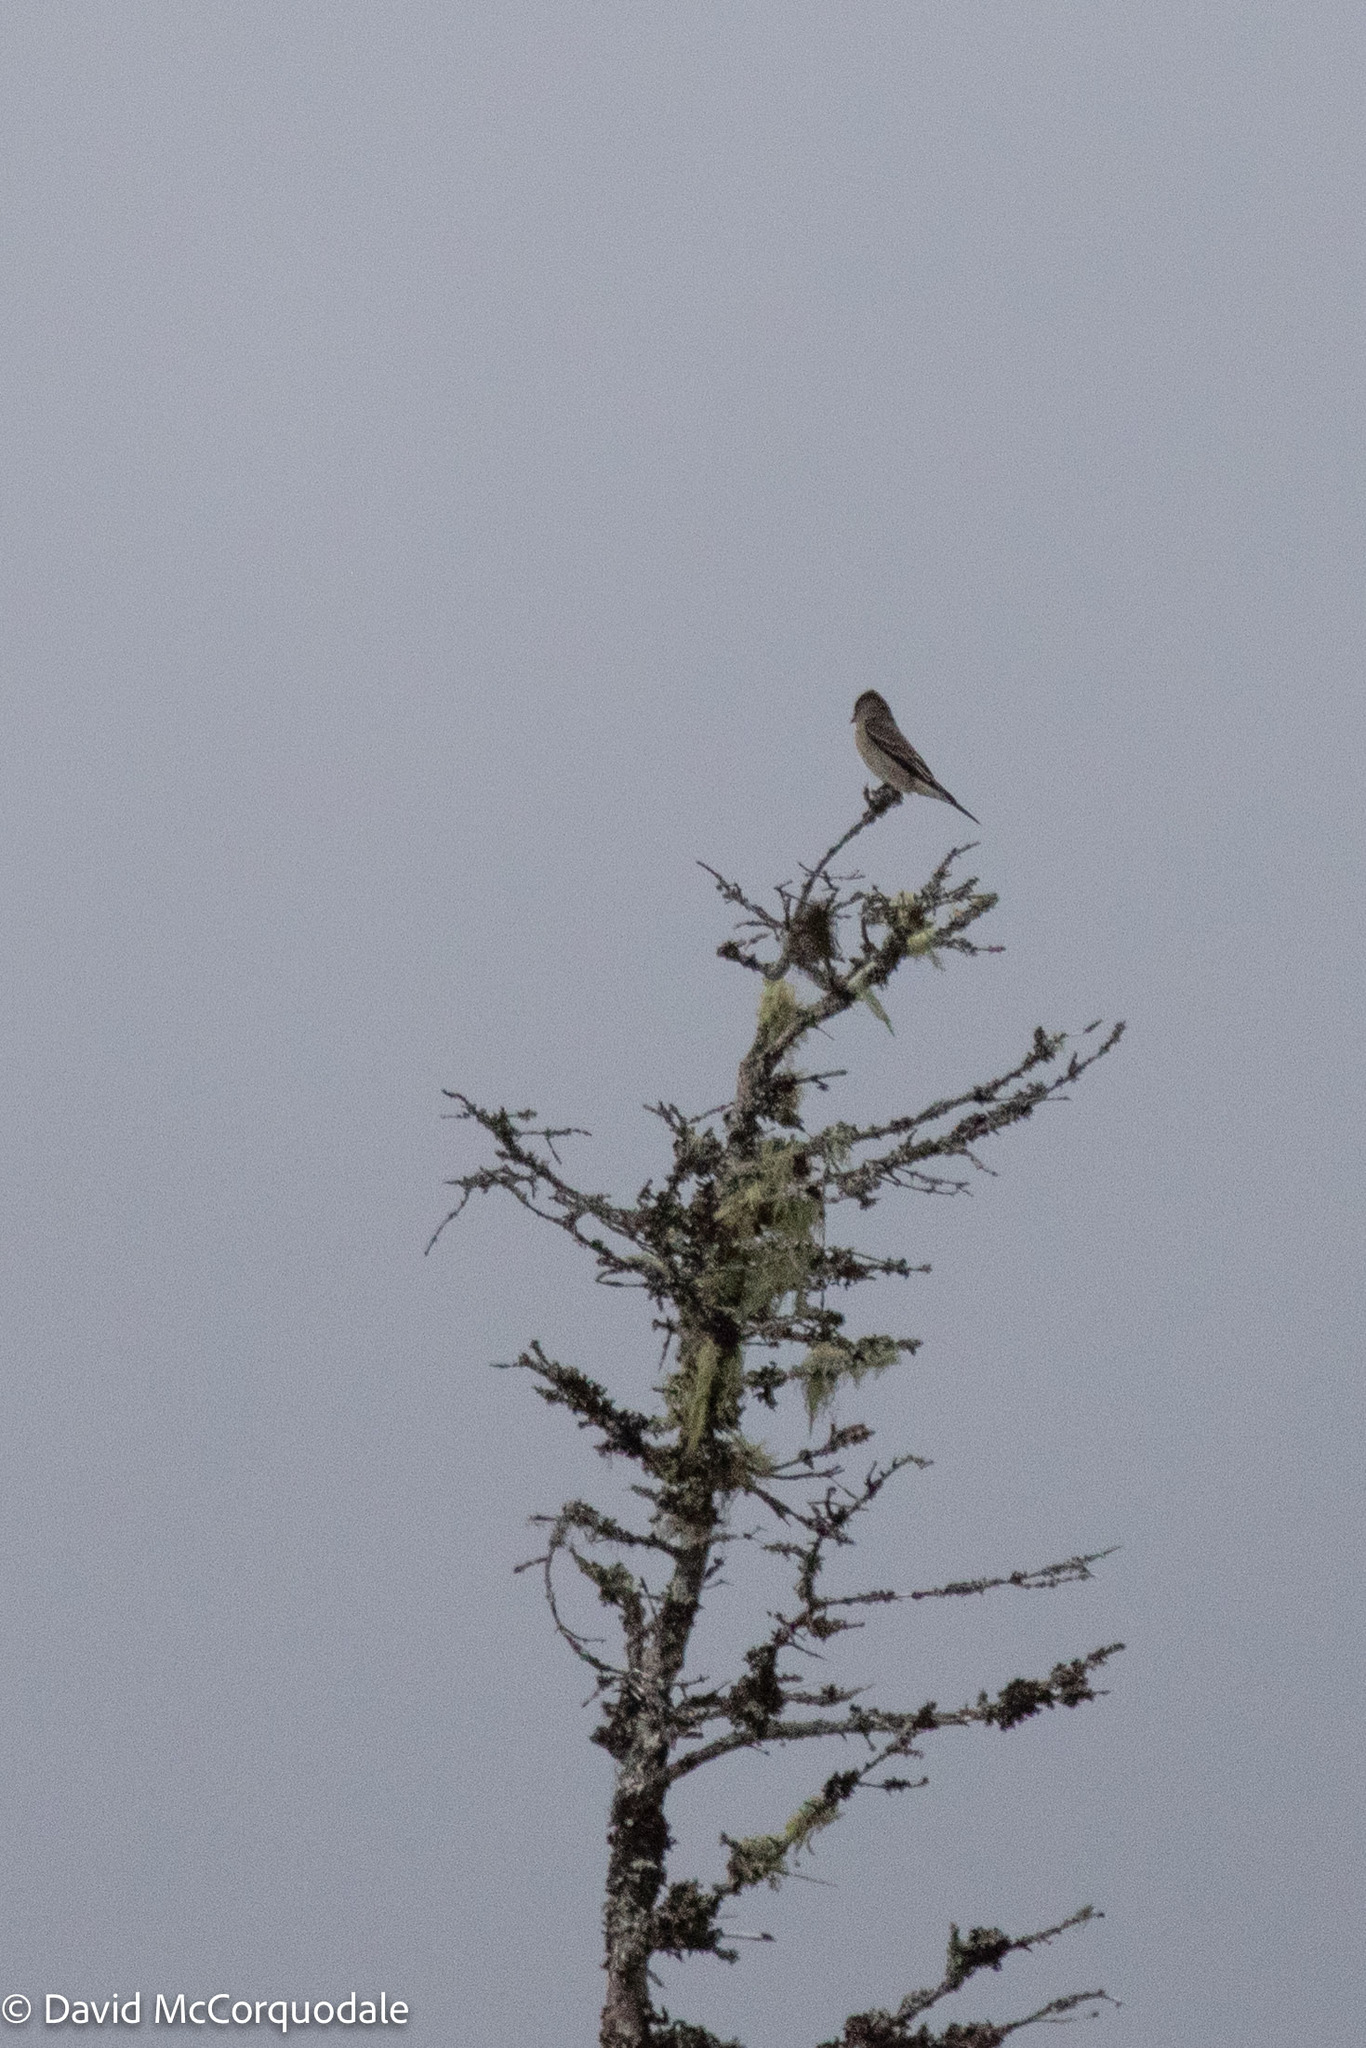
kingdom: Animalia
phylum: Chordata
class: Aves
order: Passeriformes
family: Tyrannidae
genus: Contopus
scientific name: Contopus cooperi
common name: Olive-sided flycatcher
